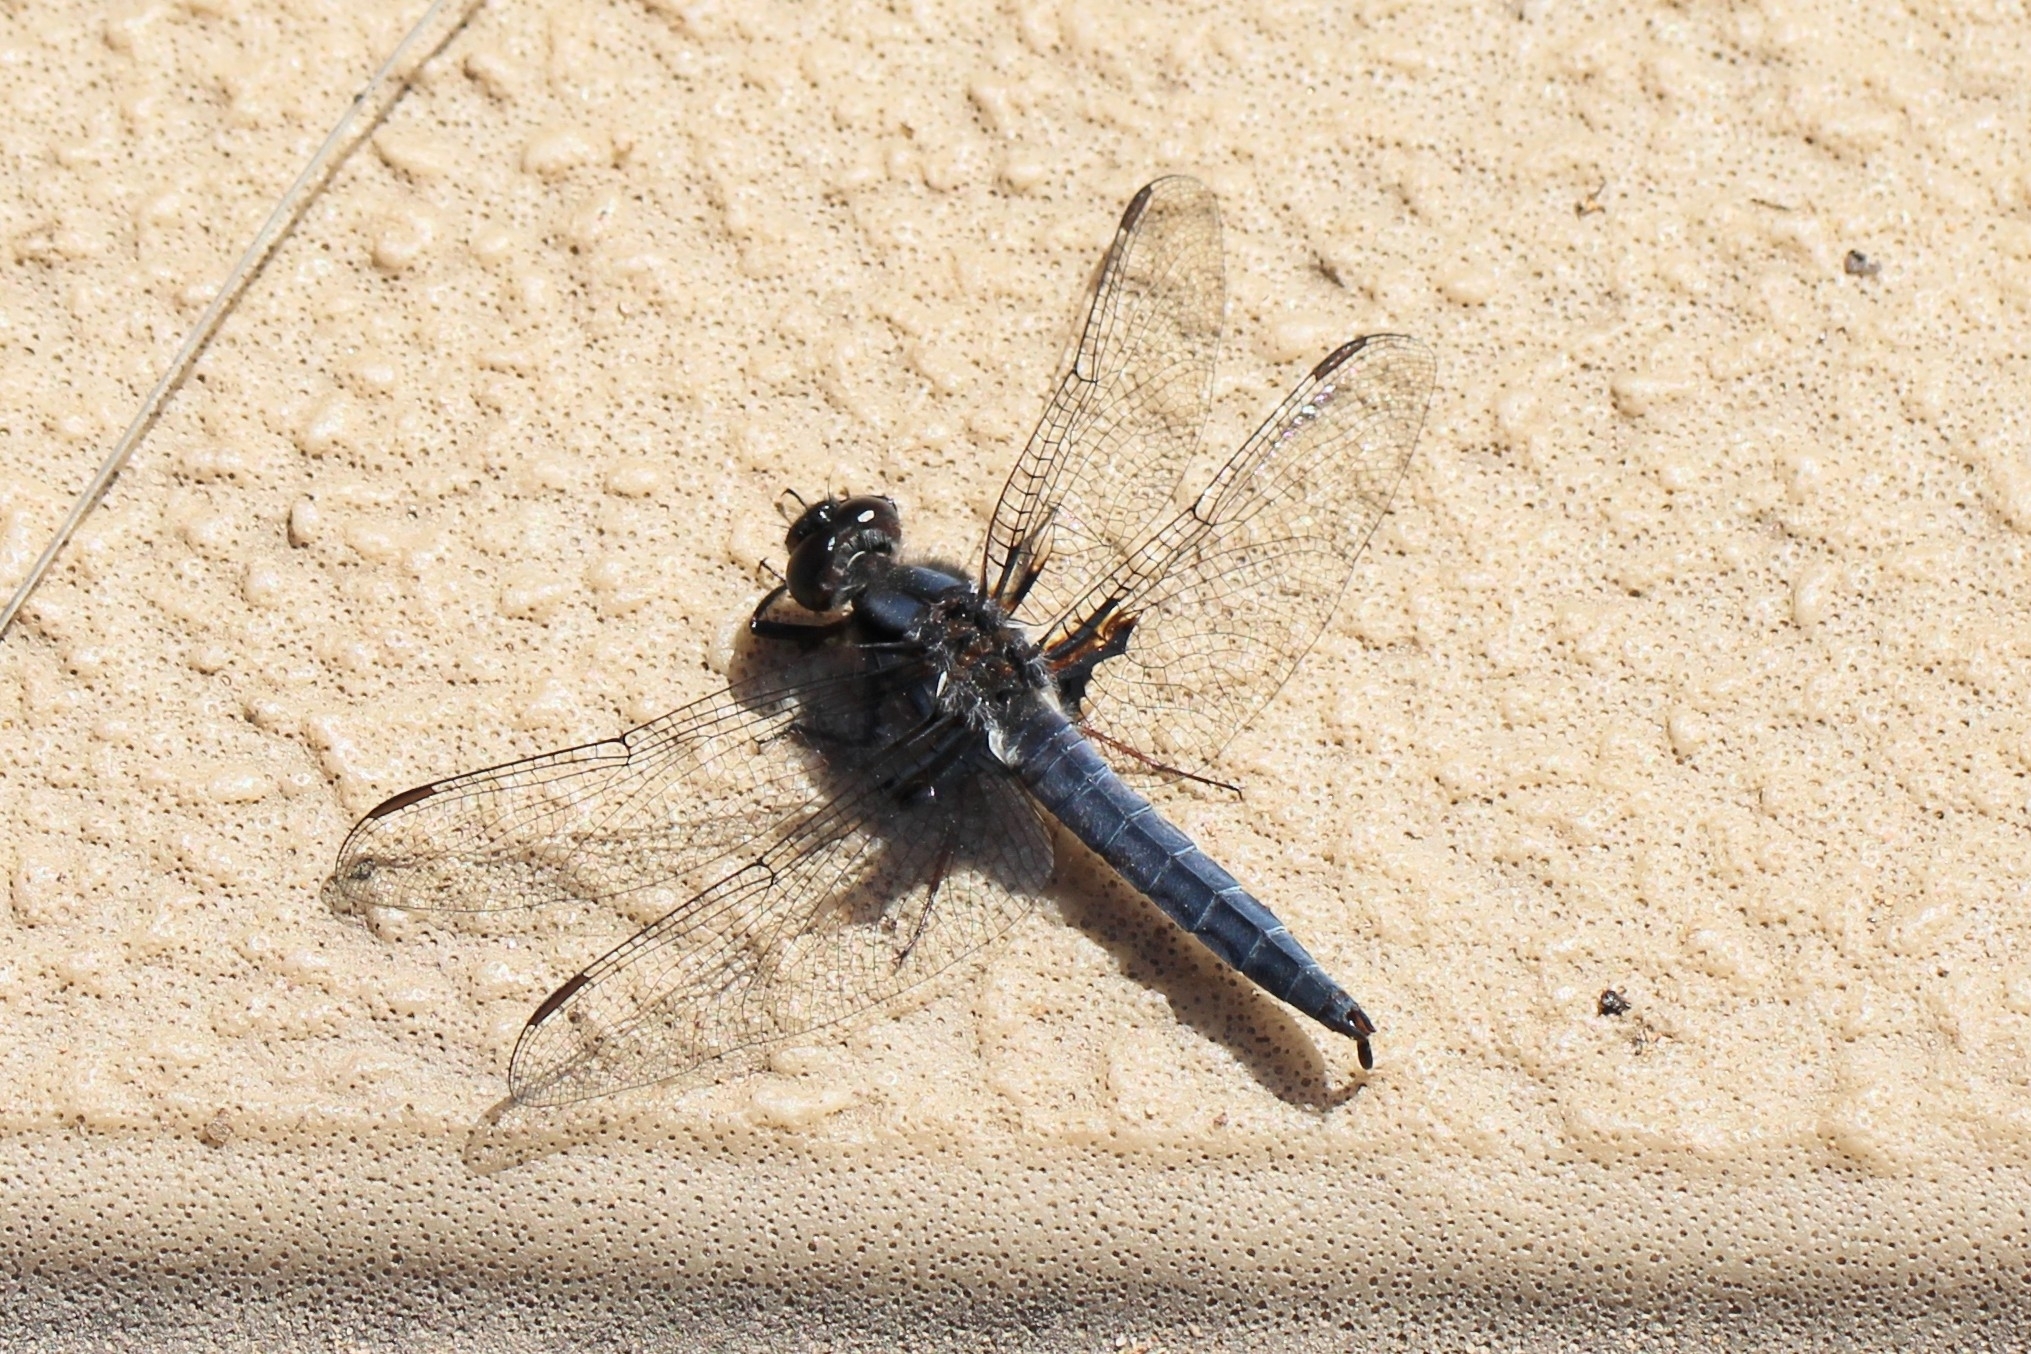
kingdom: Animalia
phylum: Arthropoda
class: Insecta
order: Odonata
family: Libellulidae
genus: Ladona
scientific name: Ladona deplanata
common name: Blue corporal
